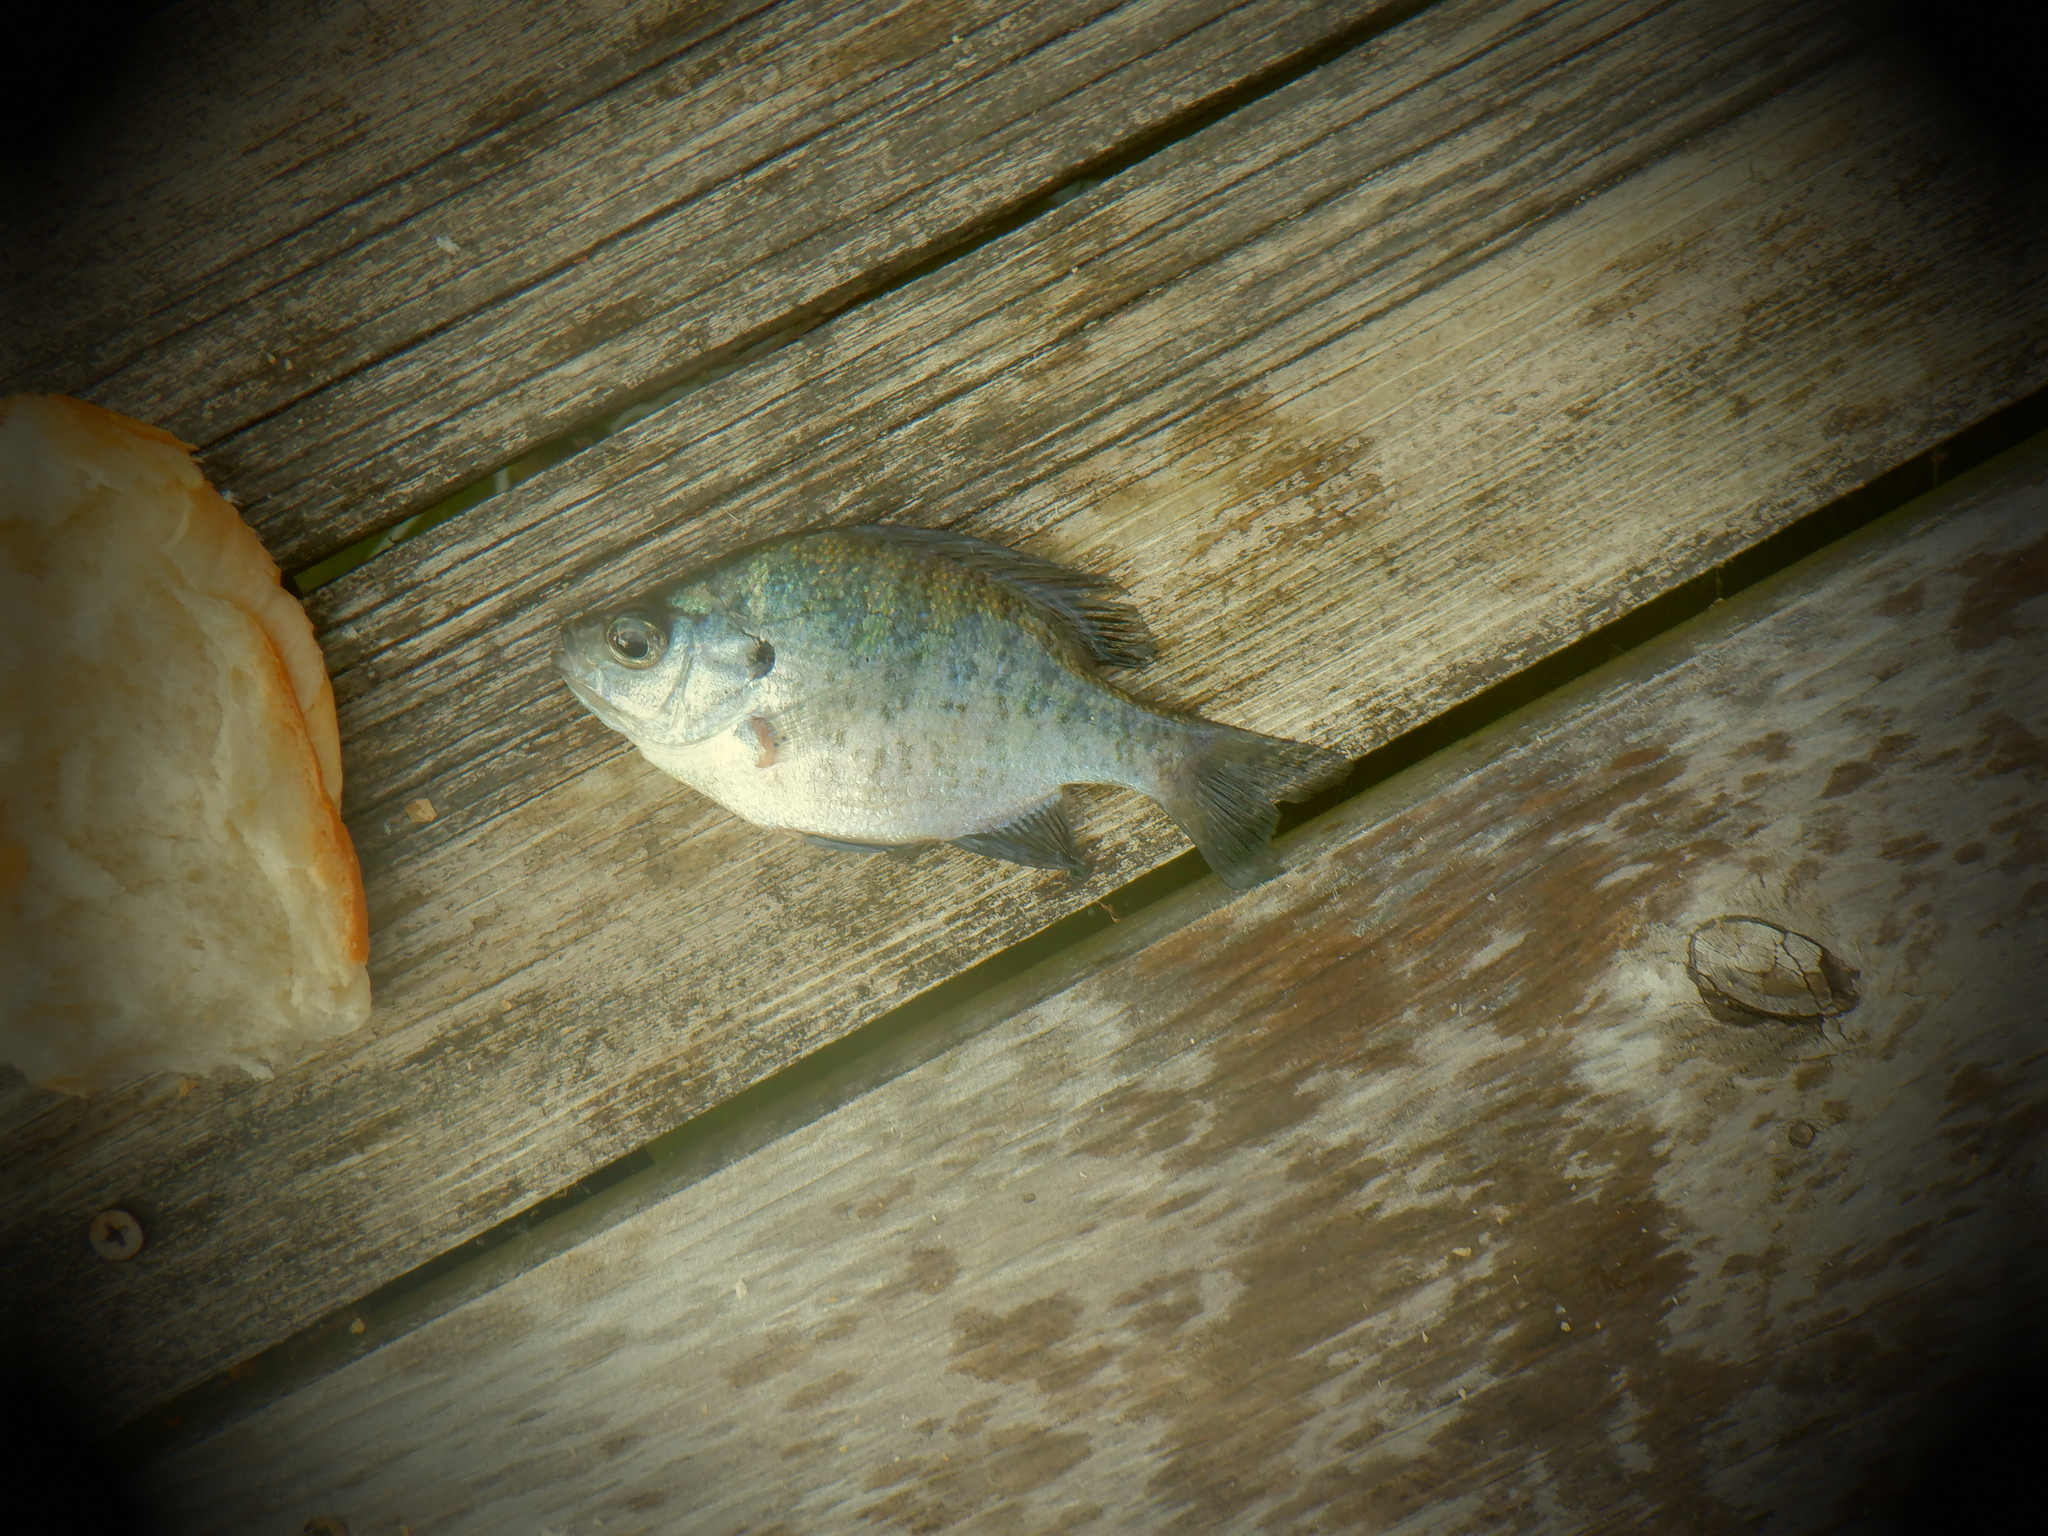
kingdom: Animalia
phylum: Chordata
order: Perciformes
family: Centrarchidae
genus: Lepomis
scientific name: Lepomis macrochirus
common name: Bluegill
